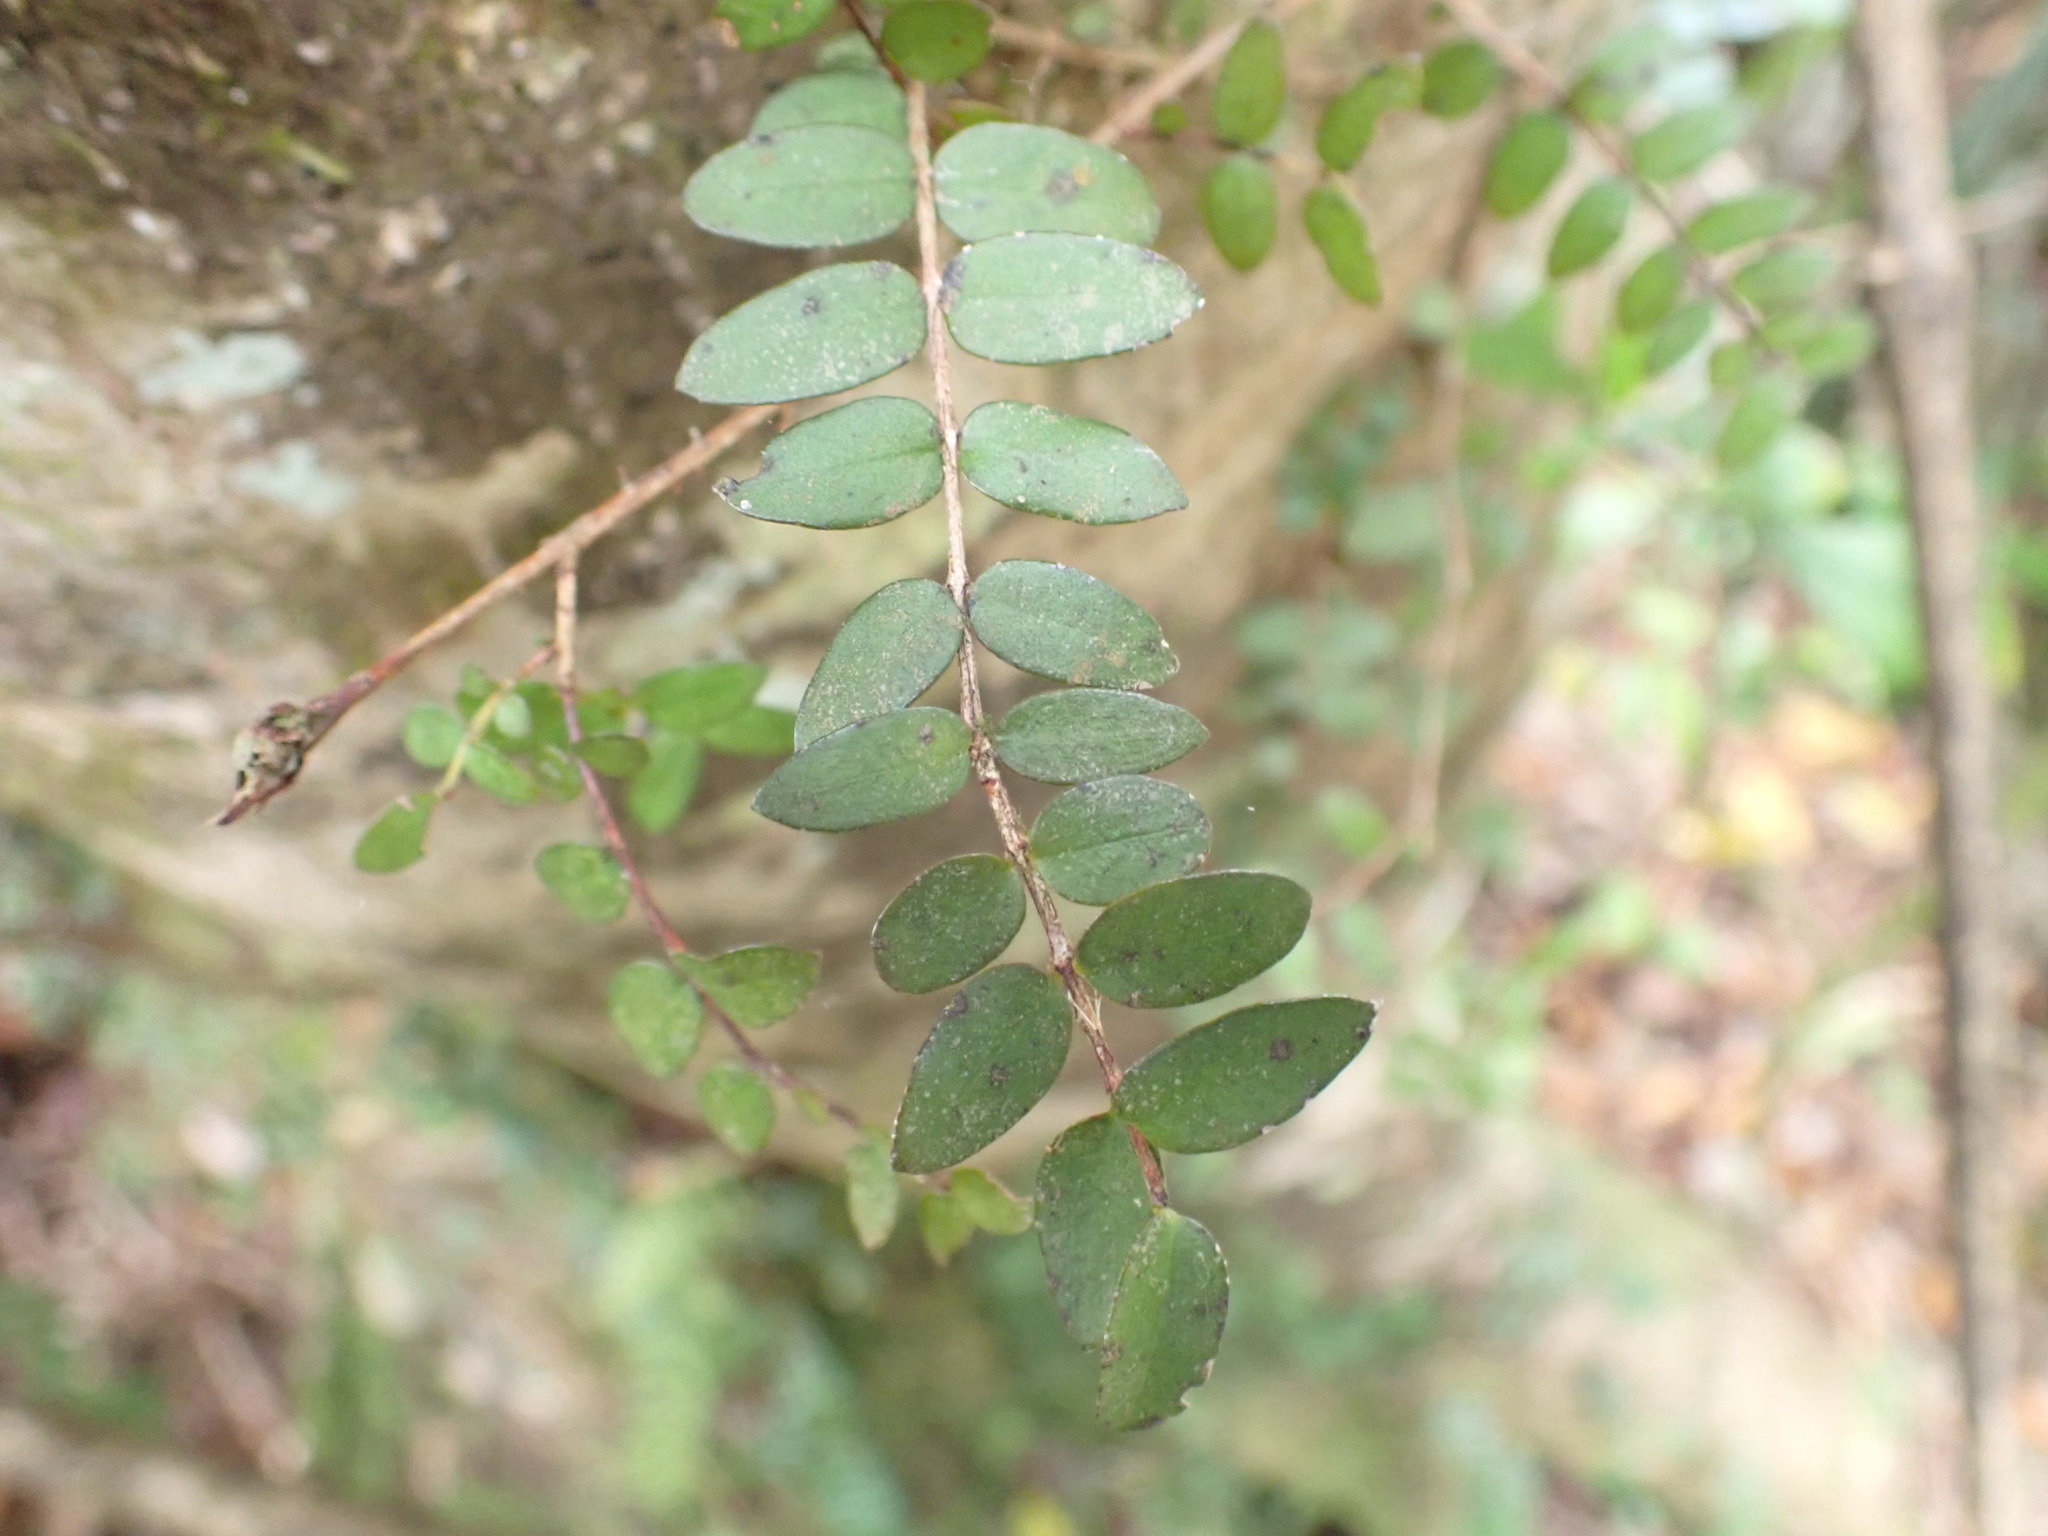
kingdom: Plantae
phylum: Tracheophyta
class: Magnoliopsida
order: Myrtales
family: Myrtaceae
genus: Metrosideros
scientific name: Metrosideros diffusa
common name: Small ratavine
